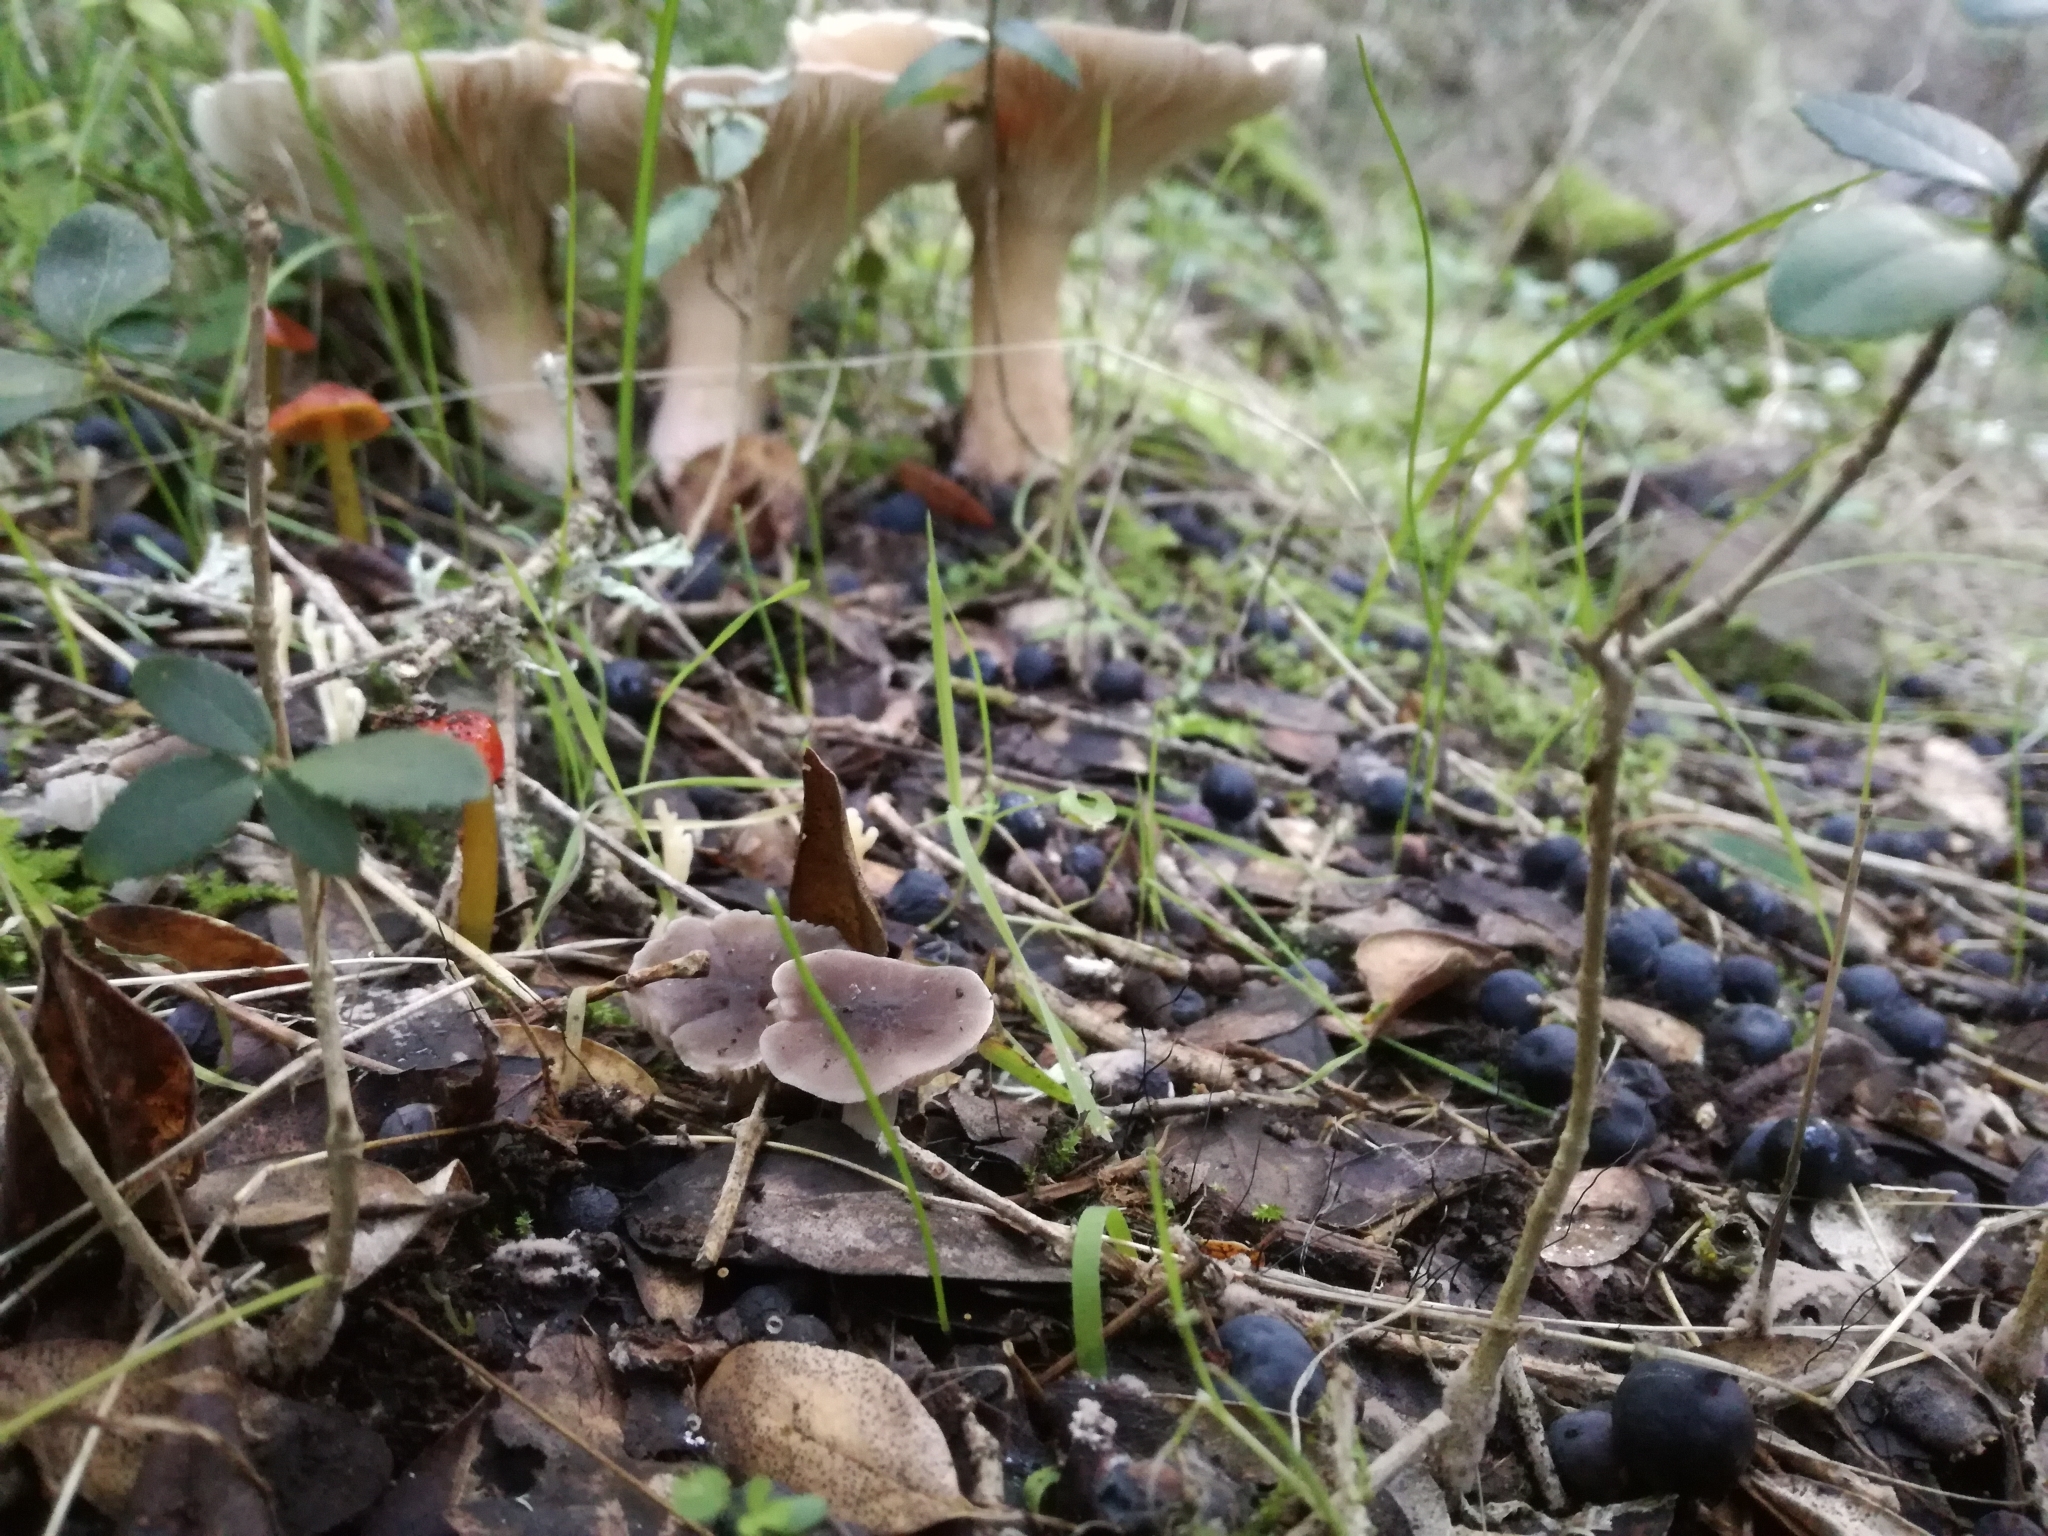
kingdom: Fungi
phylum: Basidiomycota
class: Agaricomycetes
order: Agaricales
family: Tricholomataceae
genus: Dermoloma
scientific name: Dermoloma pseudocuneifolium
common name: Dark crazed cap
